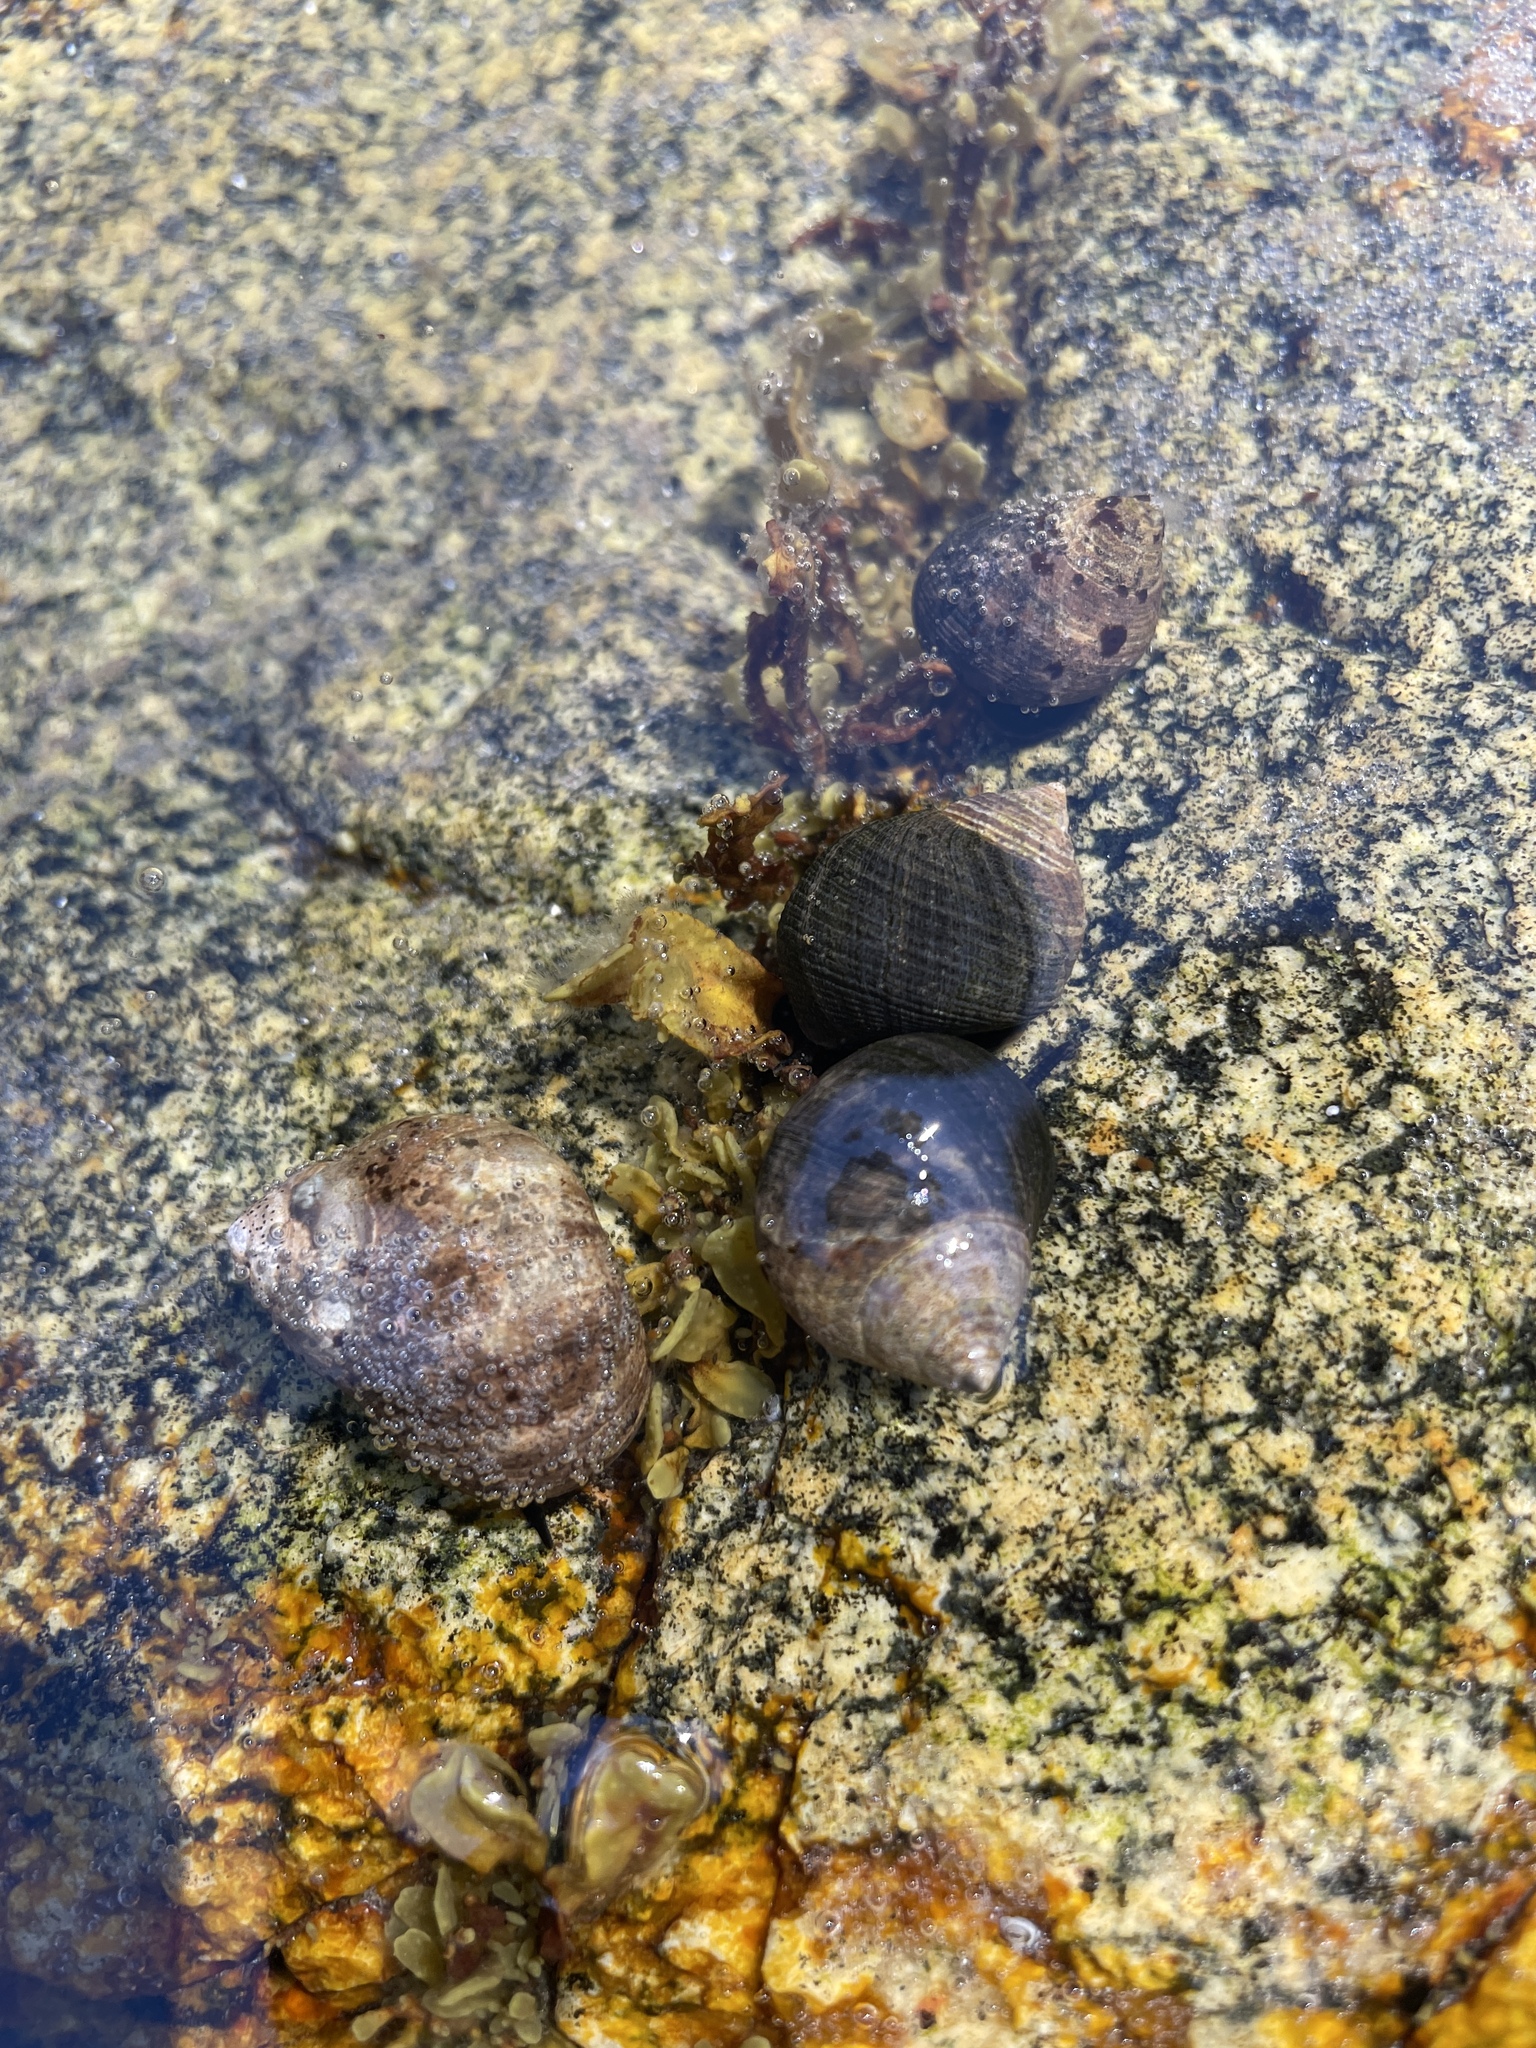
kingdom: Animalia
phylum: Mollusca
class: Gastropoda
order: Littorinimorpha
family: Littorinidae
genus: Littorina
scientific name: Littorina littorea
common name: Common periwinkle
